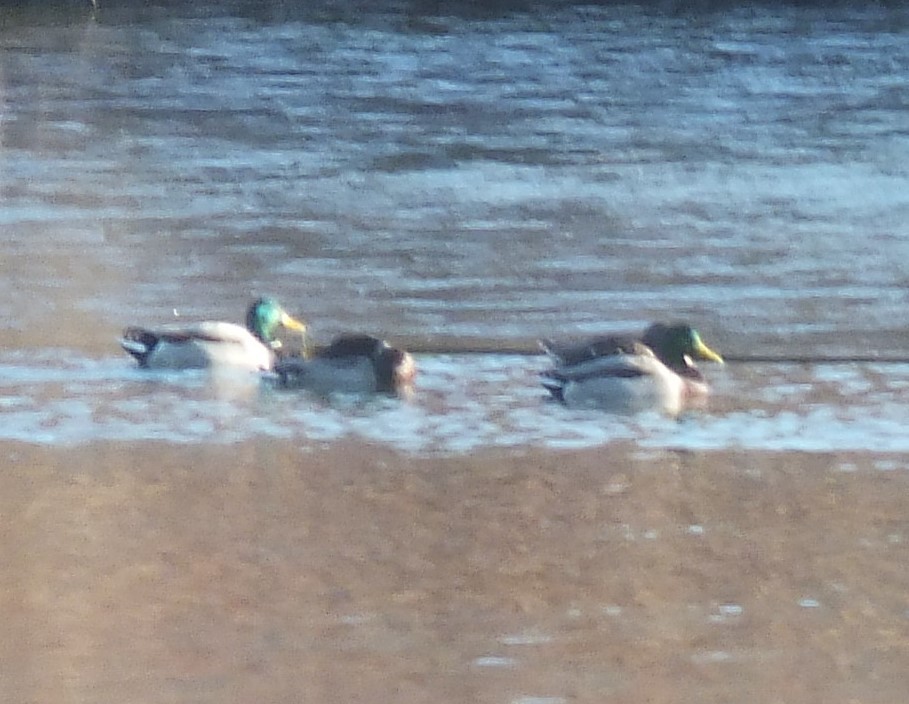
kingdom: Animalia
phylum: Chordata
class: Aves
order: Anseriformes
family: Anatidae
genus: Anas
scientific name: Anas platyrhynchos
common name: Mallard
